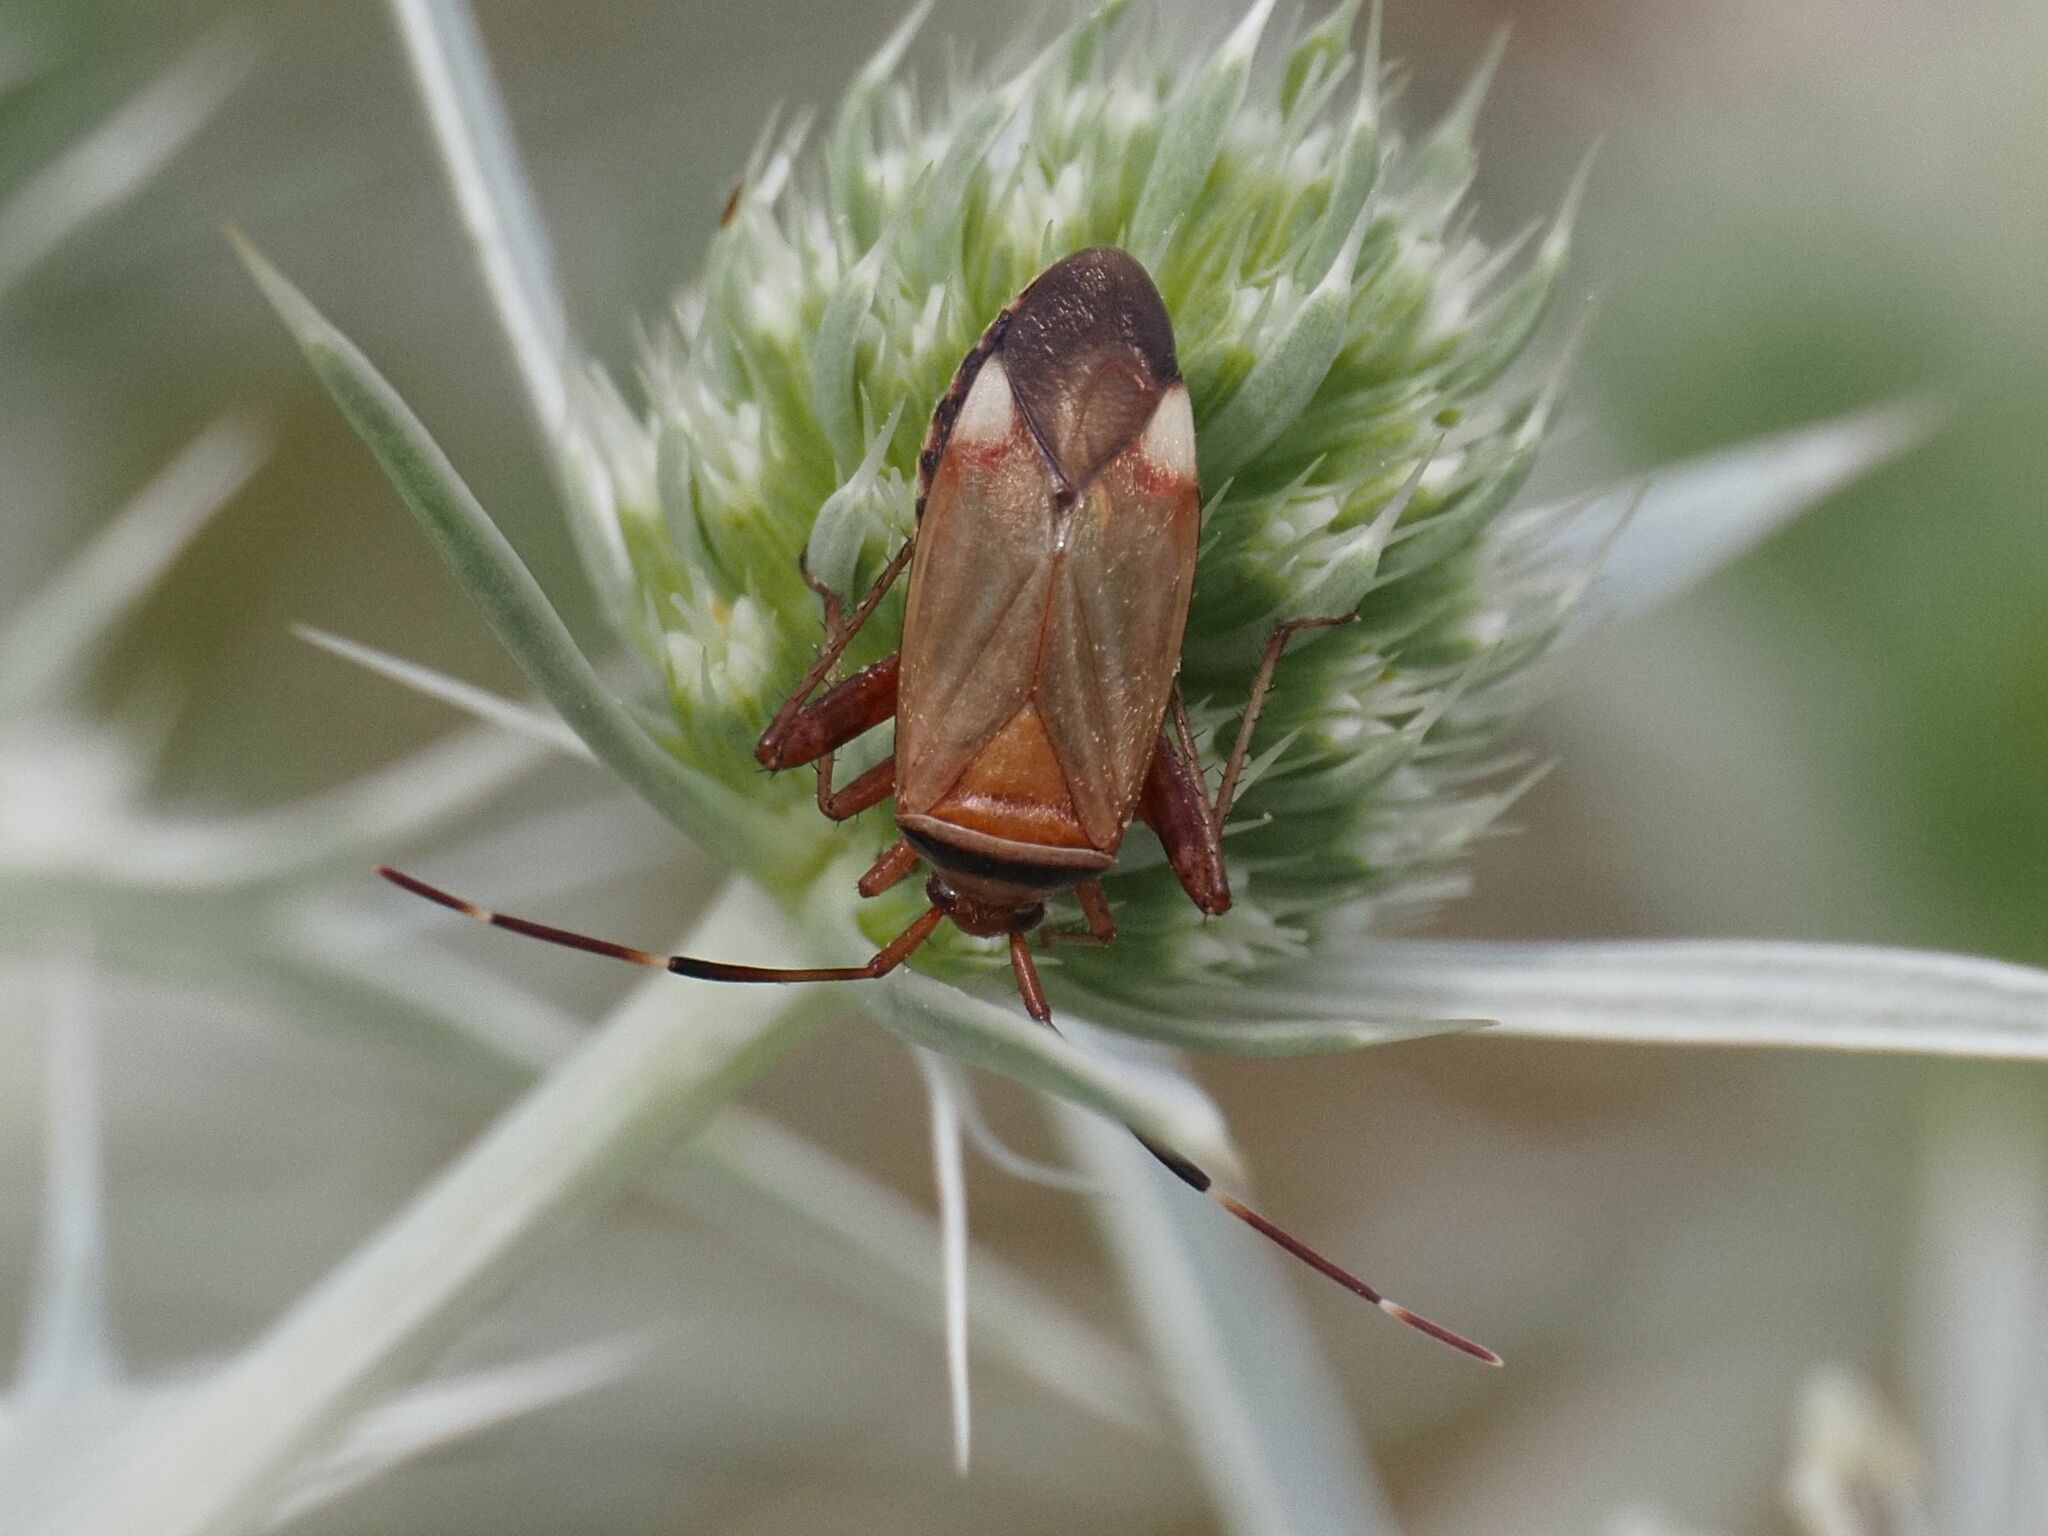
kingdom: Animalia
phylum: Arthropoda
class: Insecta
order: Hemiptera
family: Miridae
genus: Adelphocoris
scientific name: Adelphocoris vandalicus
